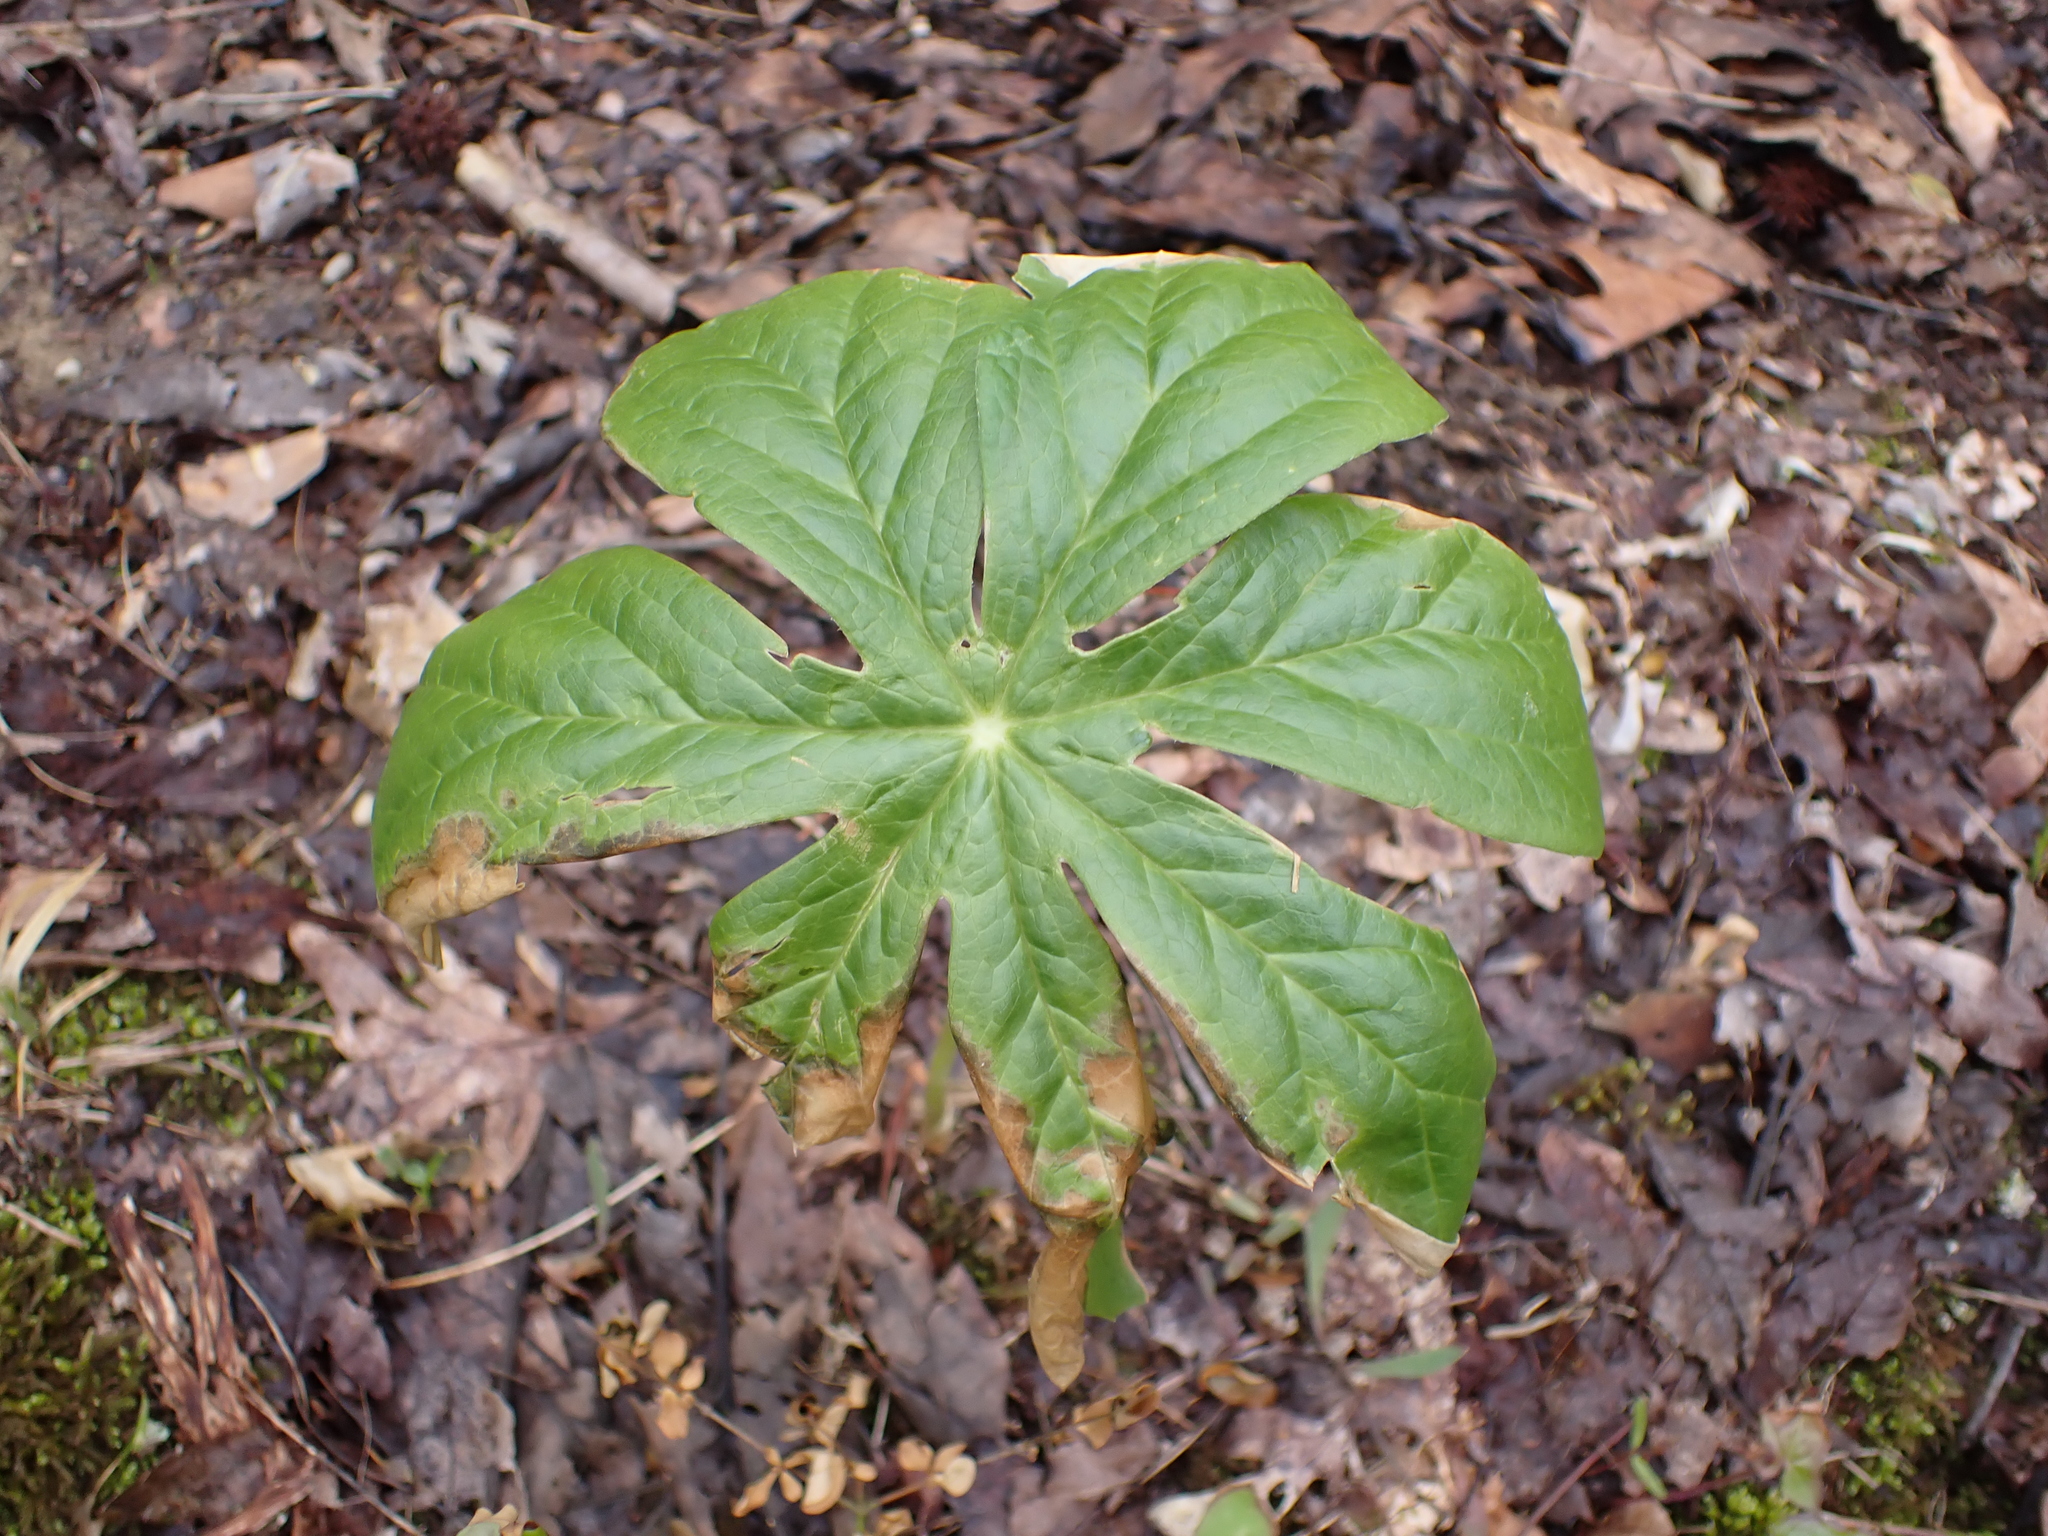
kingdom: Plantae
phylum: Tracheophyta
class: Magnoliopsida
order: Ranunculales
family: Berberidaceae
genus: Podophyllum
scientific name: Podophyllum peltatum
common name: Wild mandrake
